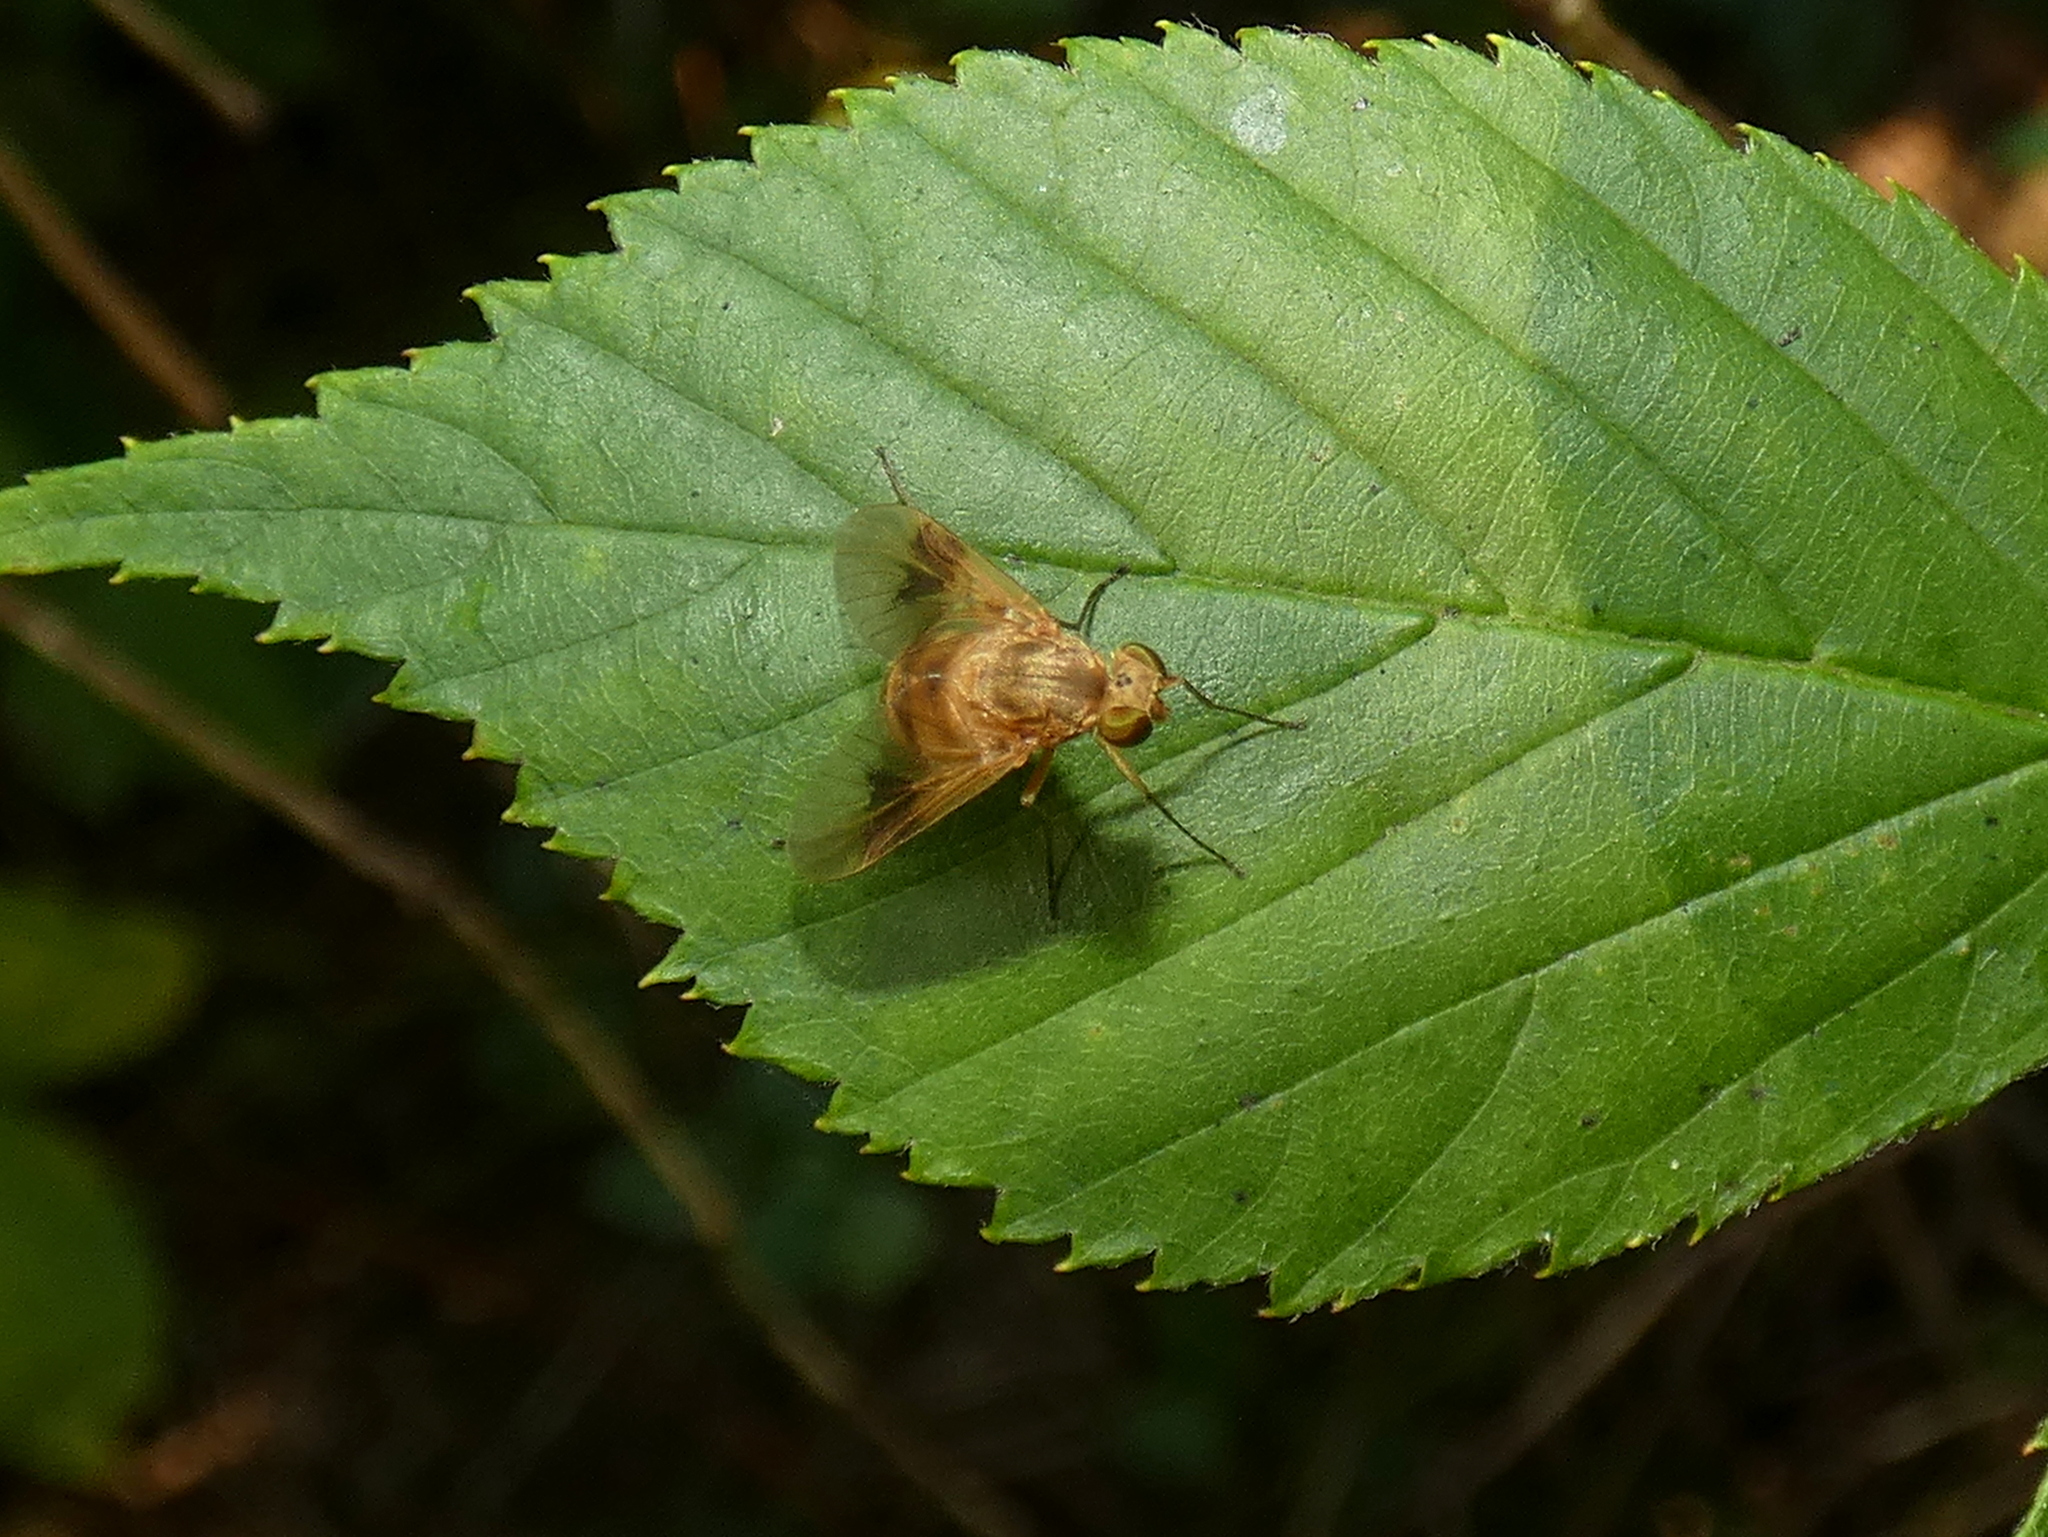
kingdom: Animalia
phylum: Arthropoda
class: Insecta
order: Diptera
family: Rhagionidae
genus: Chrysopilus
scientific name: Chrysopilus quadratus
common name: Quadrate snipe fly
